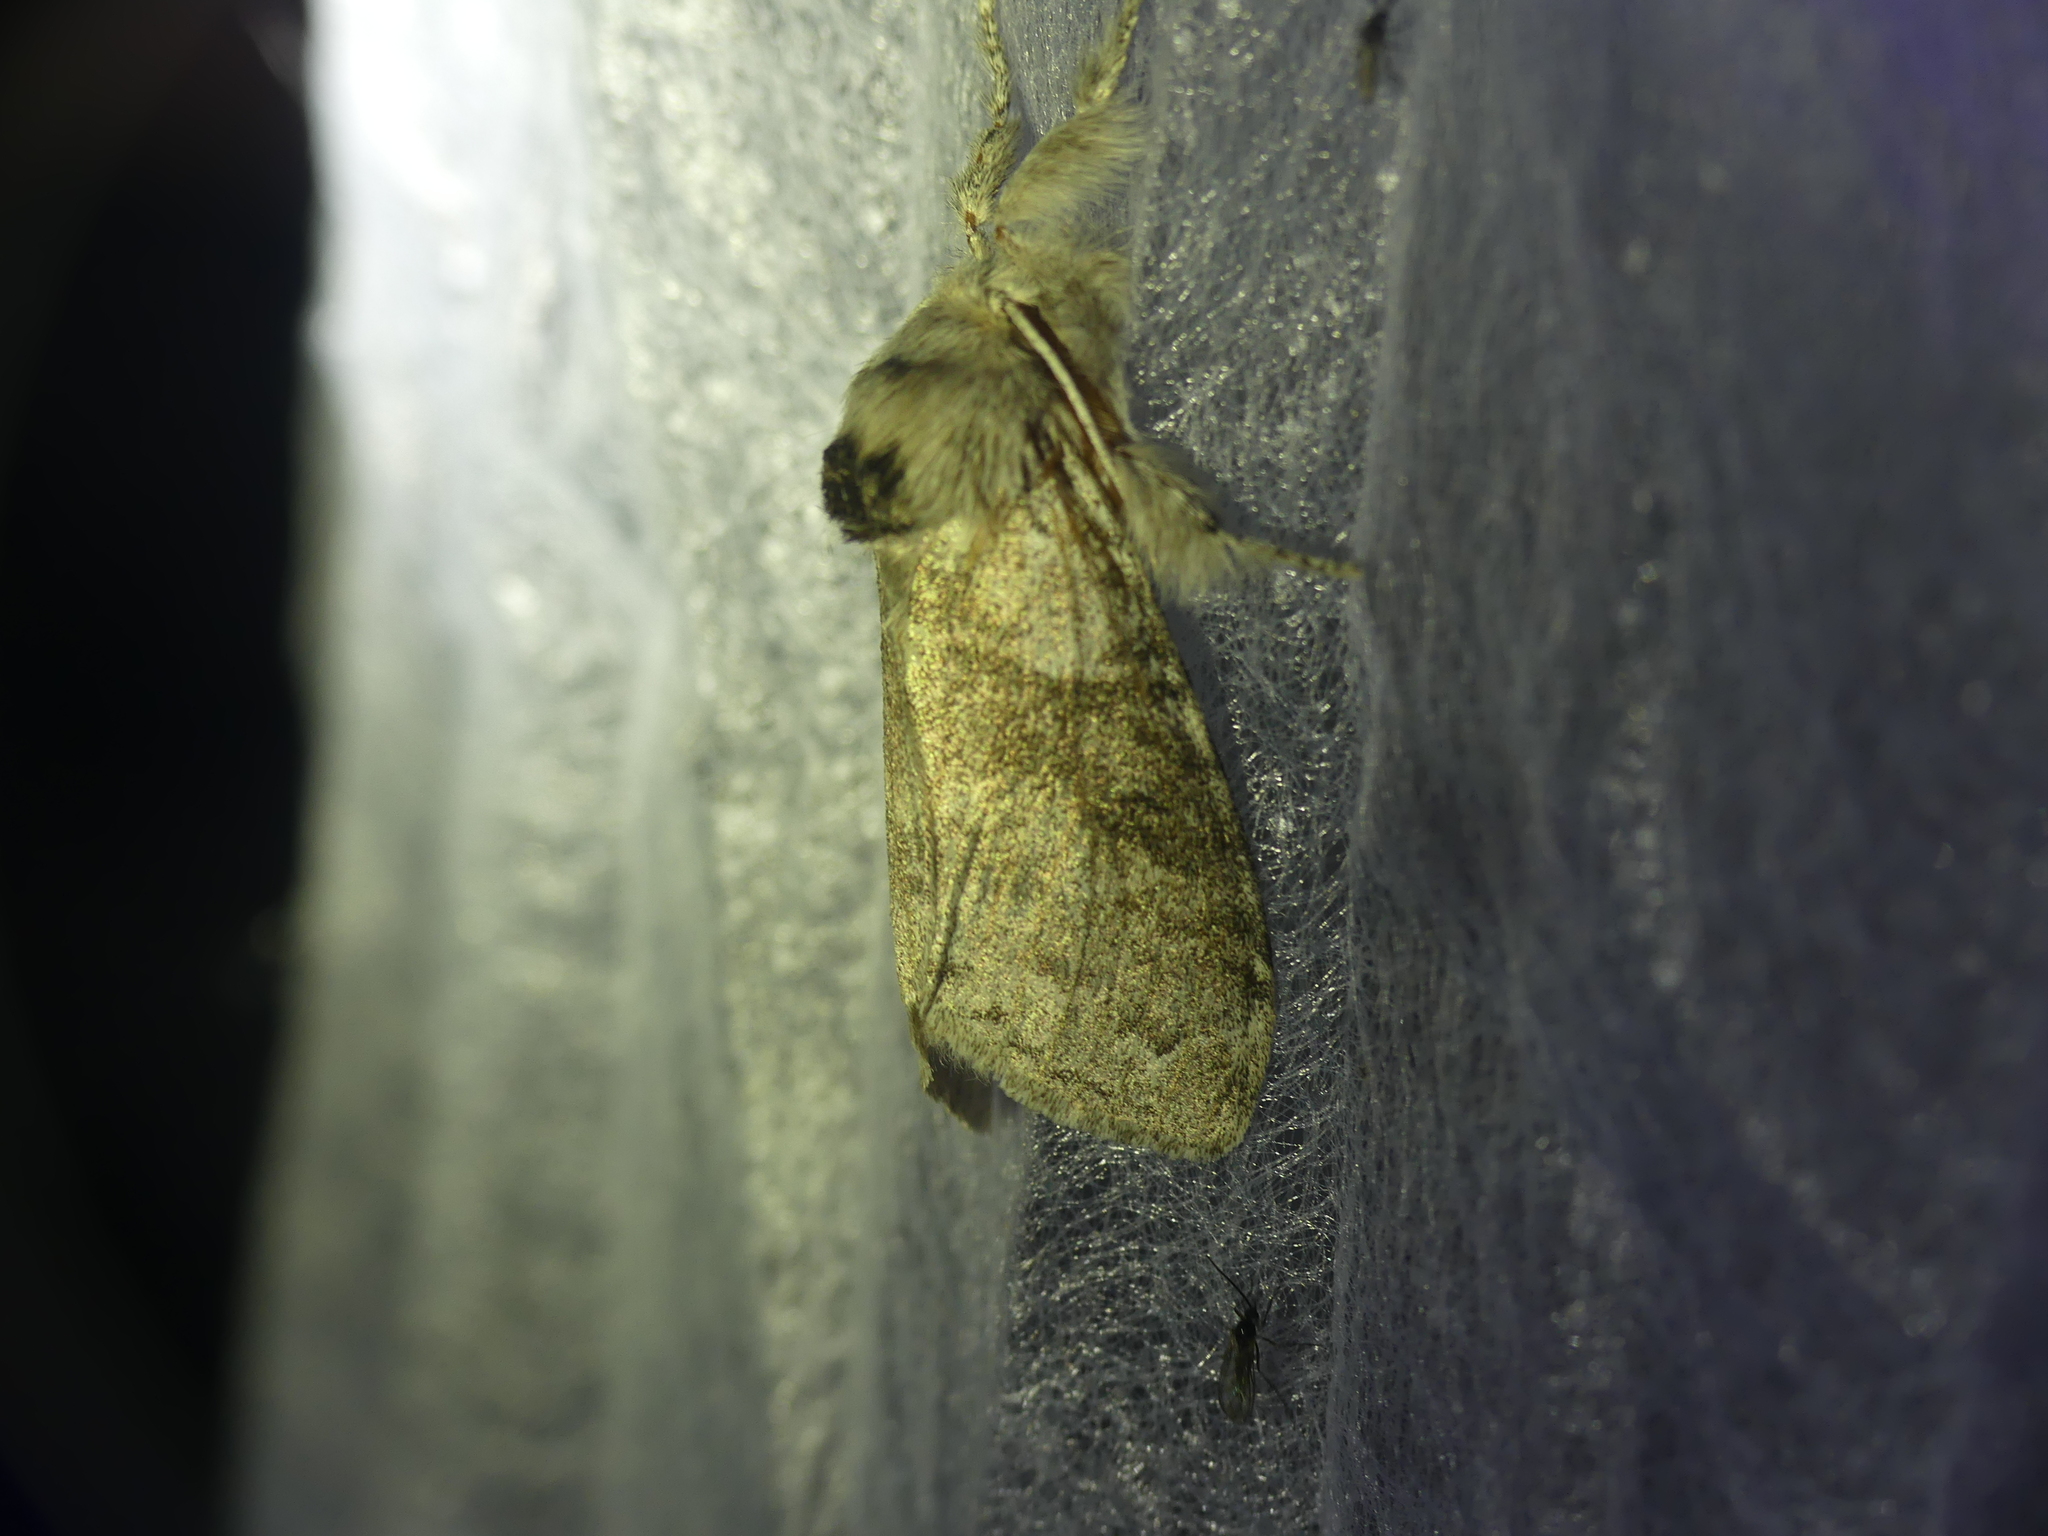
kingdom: Animalia
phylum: Arthropoda
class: Insecta
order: Lepidoptera
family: Erebidae
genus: Calliteara
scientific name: Calliteara pudibunda
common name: Pale tussock
